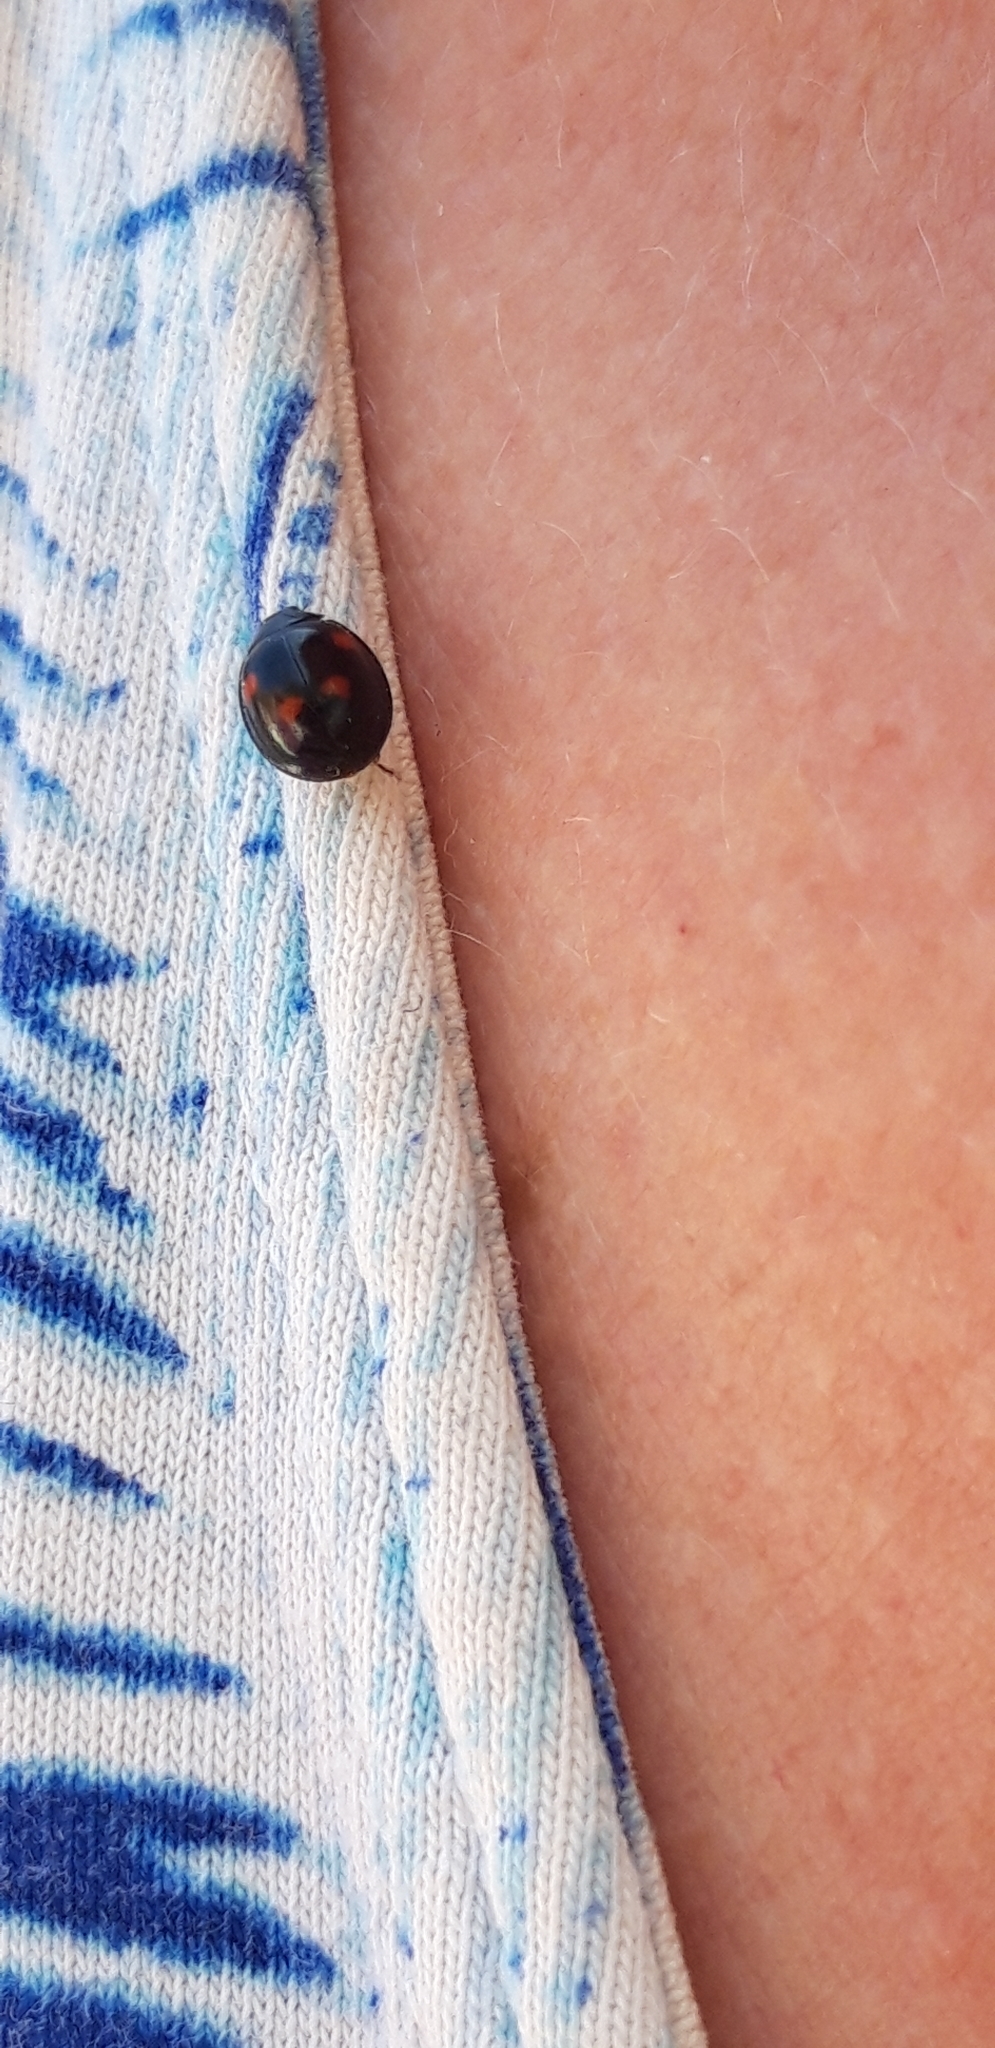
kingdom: Animalia
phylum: Arthropoda
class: Insecta
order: Coleoptera
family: Coccinellidae
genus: Brumus
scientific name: Brumus quadripustulatus
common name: Ladybird beetle
